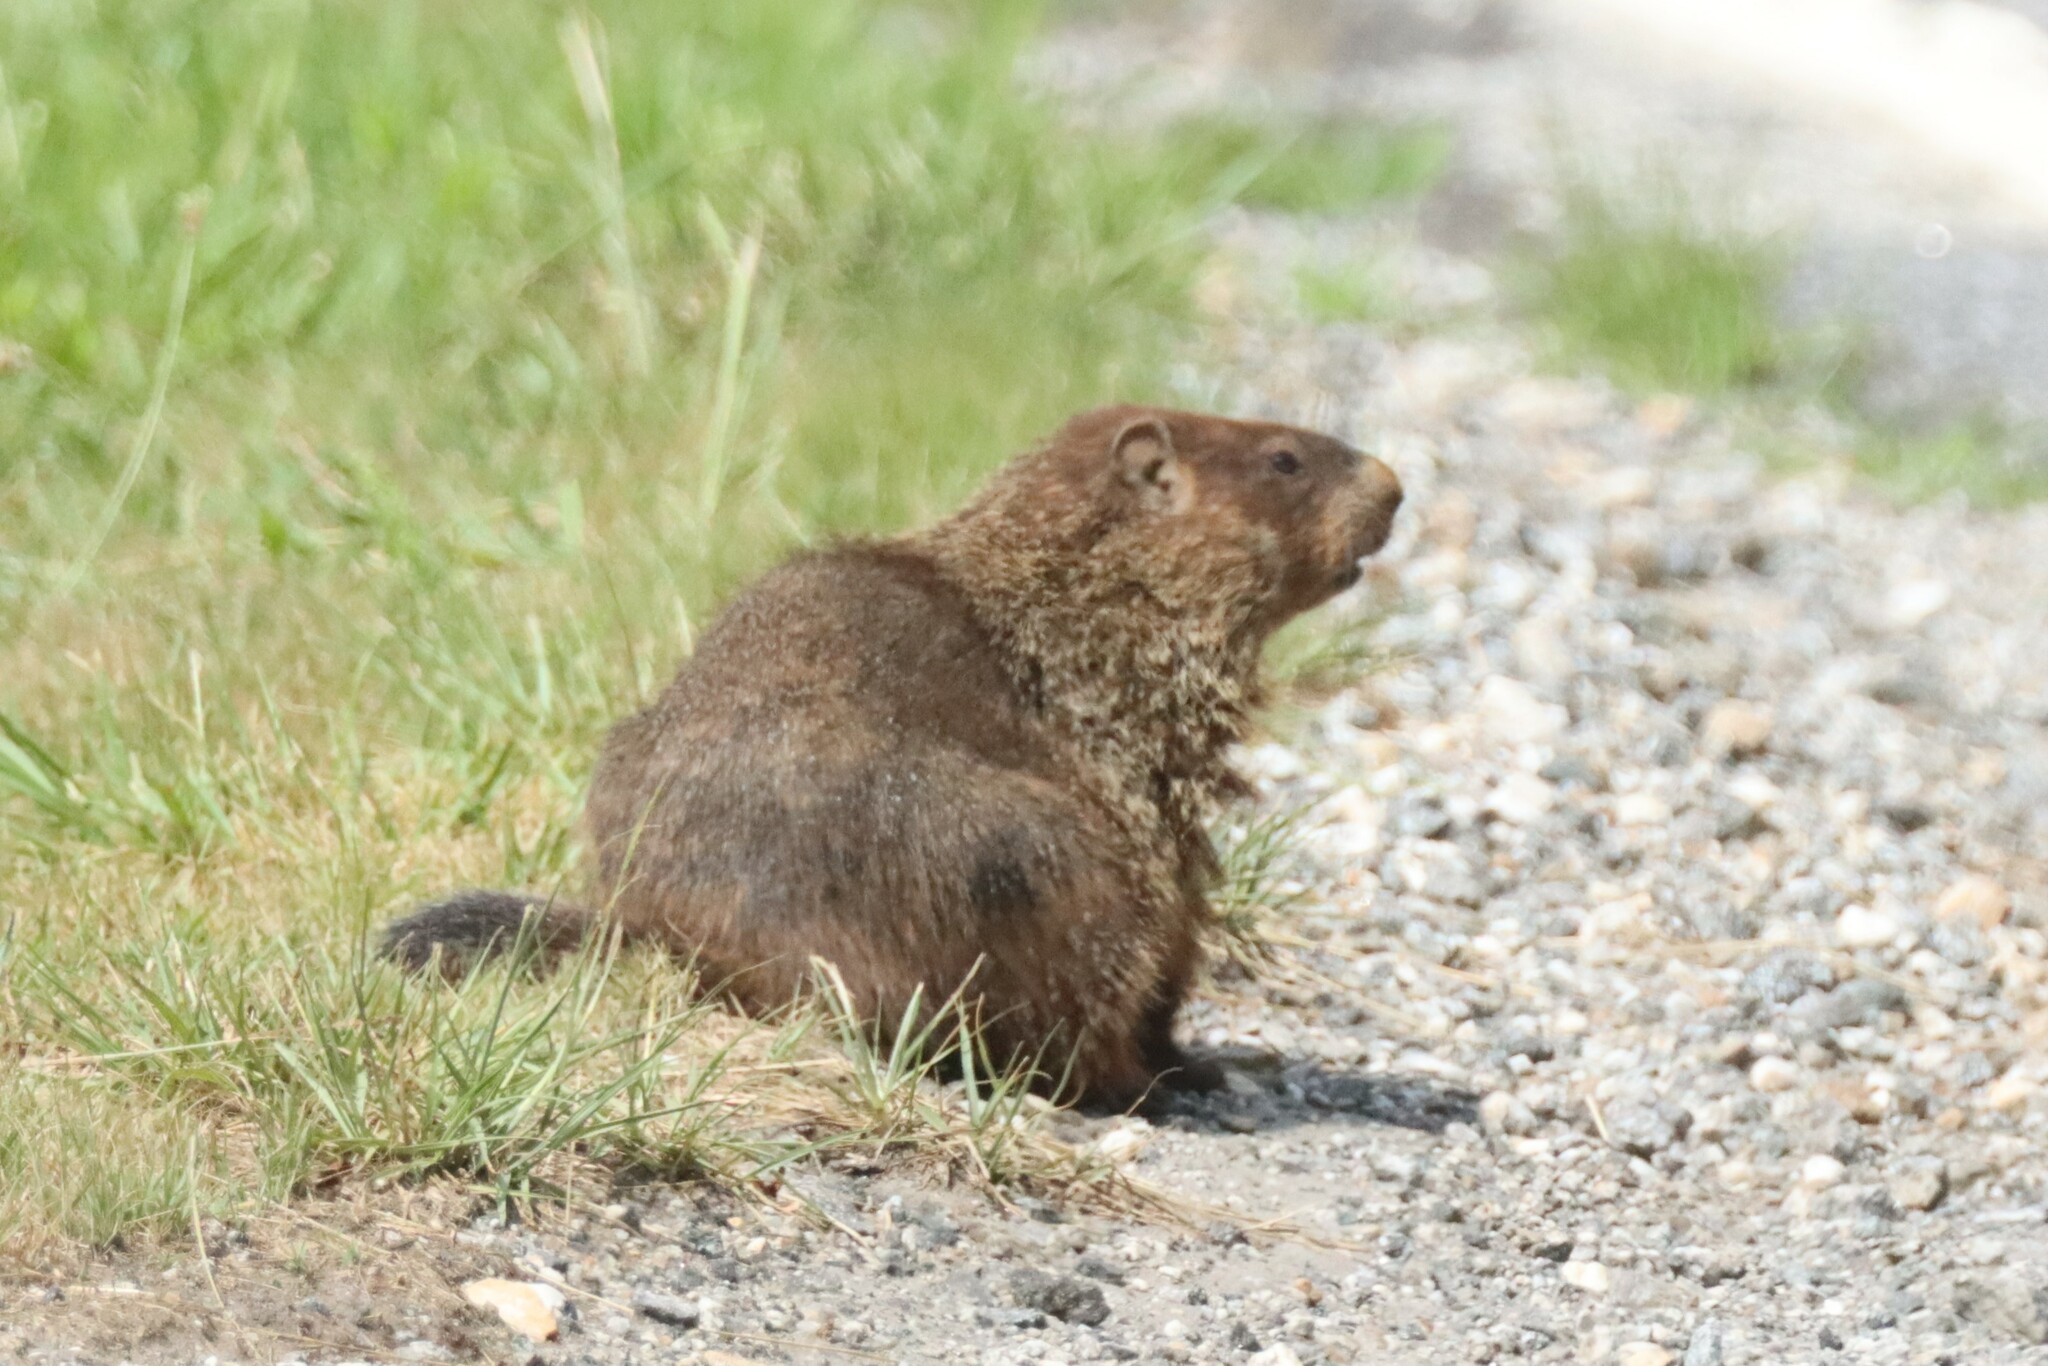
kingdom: Animalia
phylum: Chordata
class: Mammalia
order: Rodentia
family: Sciuridae
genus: Marmota
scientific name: Marmota monax
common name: Groundhog
